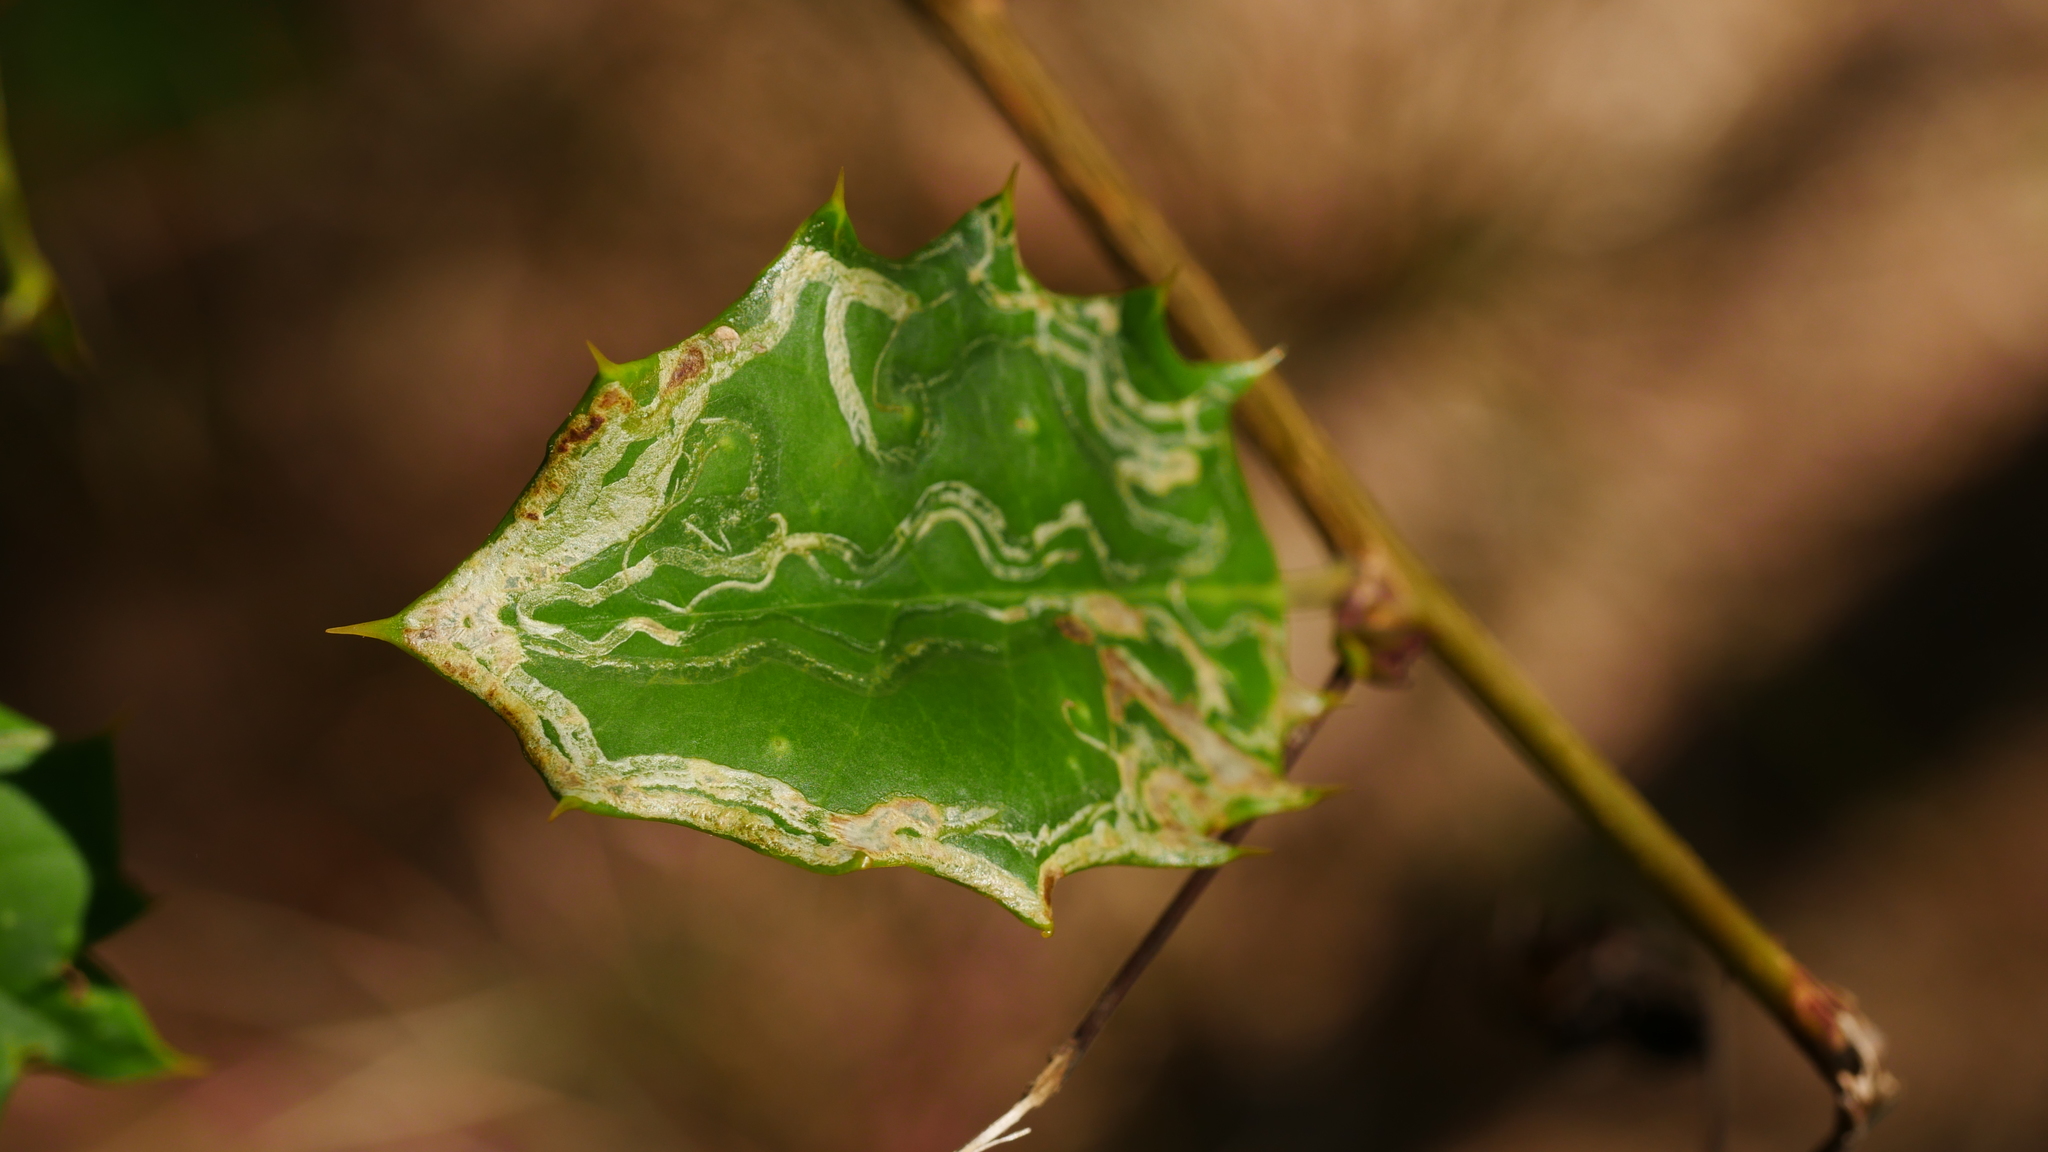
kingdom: Animalia
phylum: Arthropoda
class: Insecta
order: Diptera
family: Agromyzidae
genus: Phytomyza
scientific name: Phytomyza opacae
